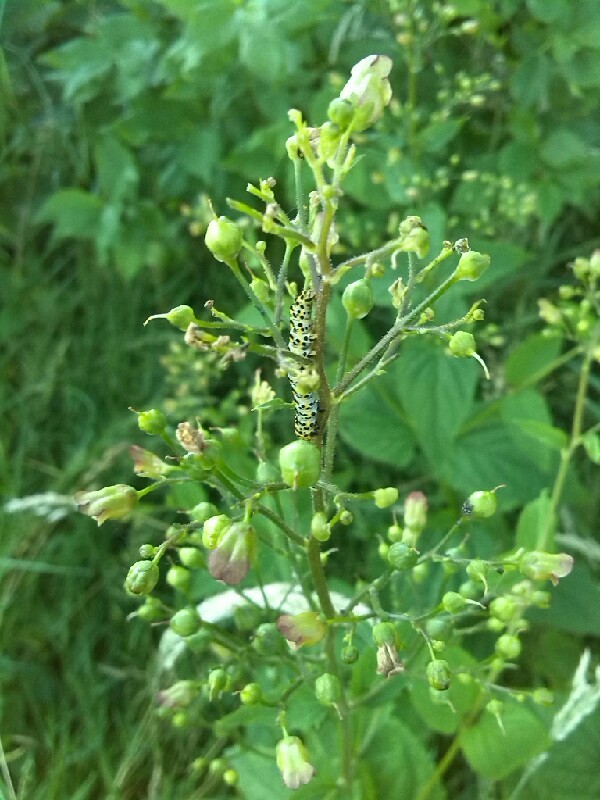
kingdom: Animalia
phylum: Arthropoda
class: Insecta
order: Lepidoptera
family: Noctuidae
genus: Shargacucullia
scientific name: Shargacucullia scrophulariae
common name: Water betony
